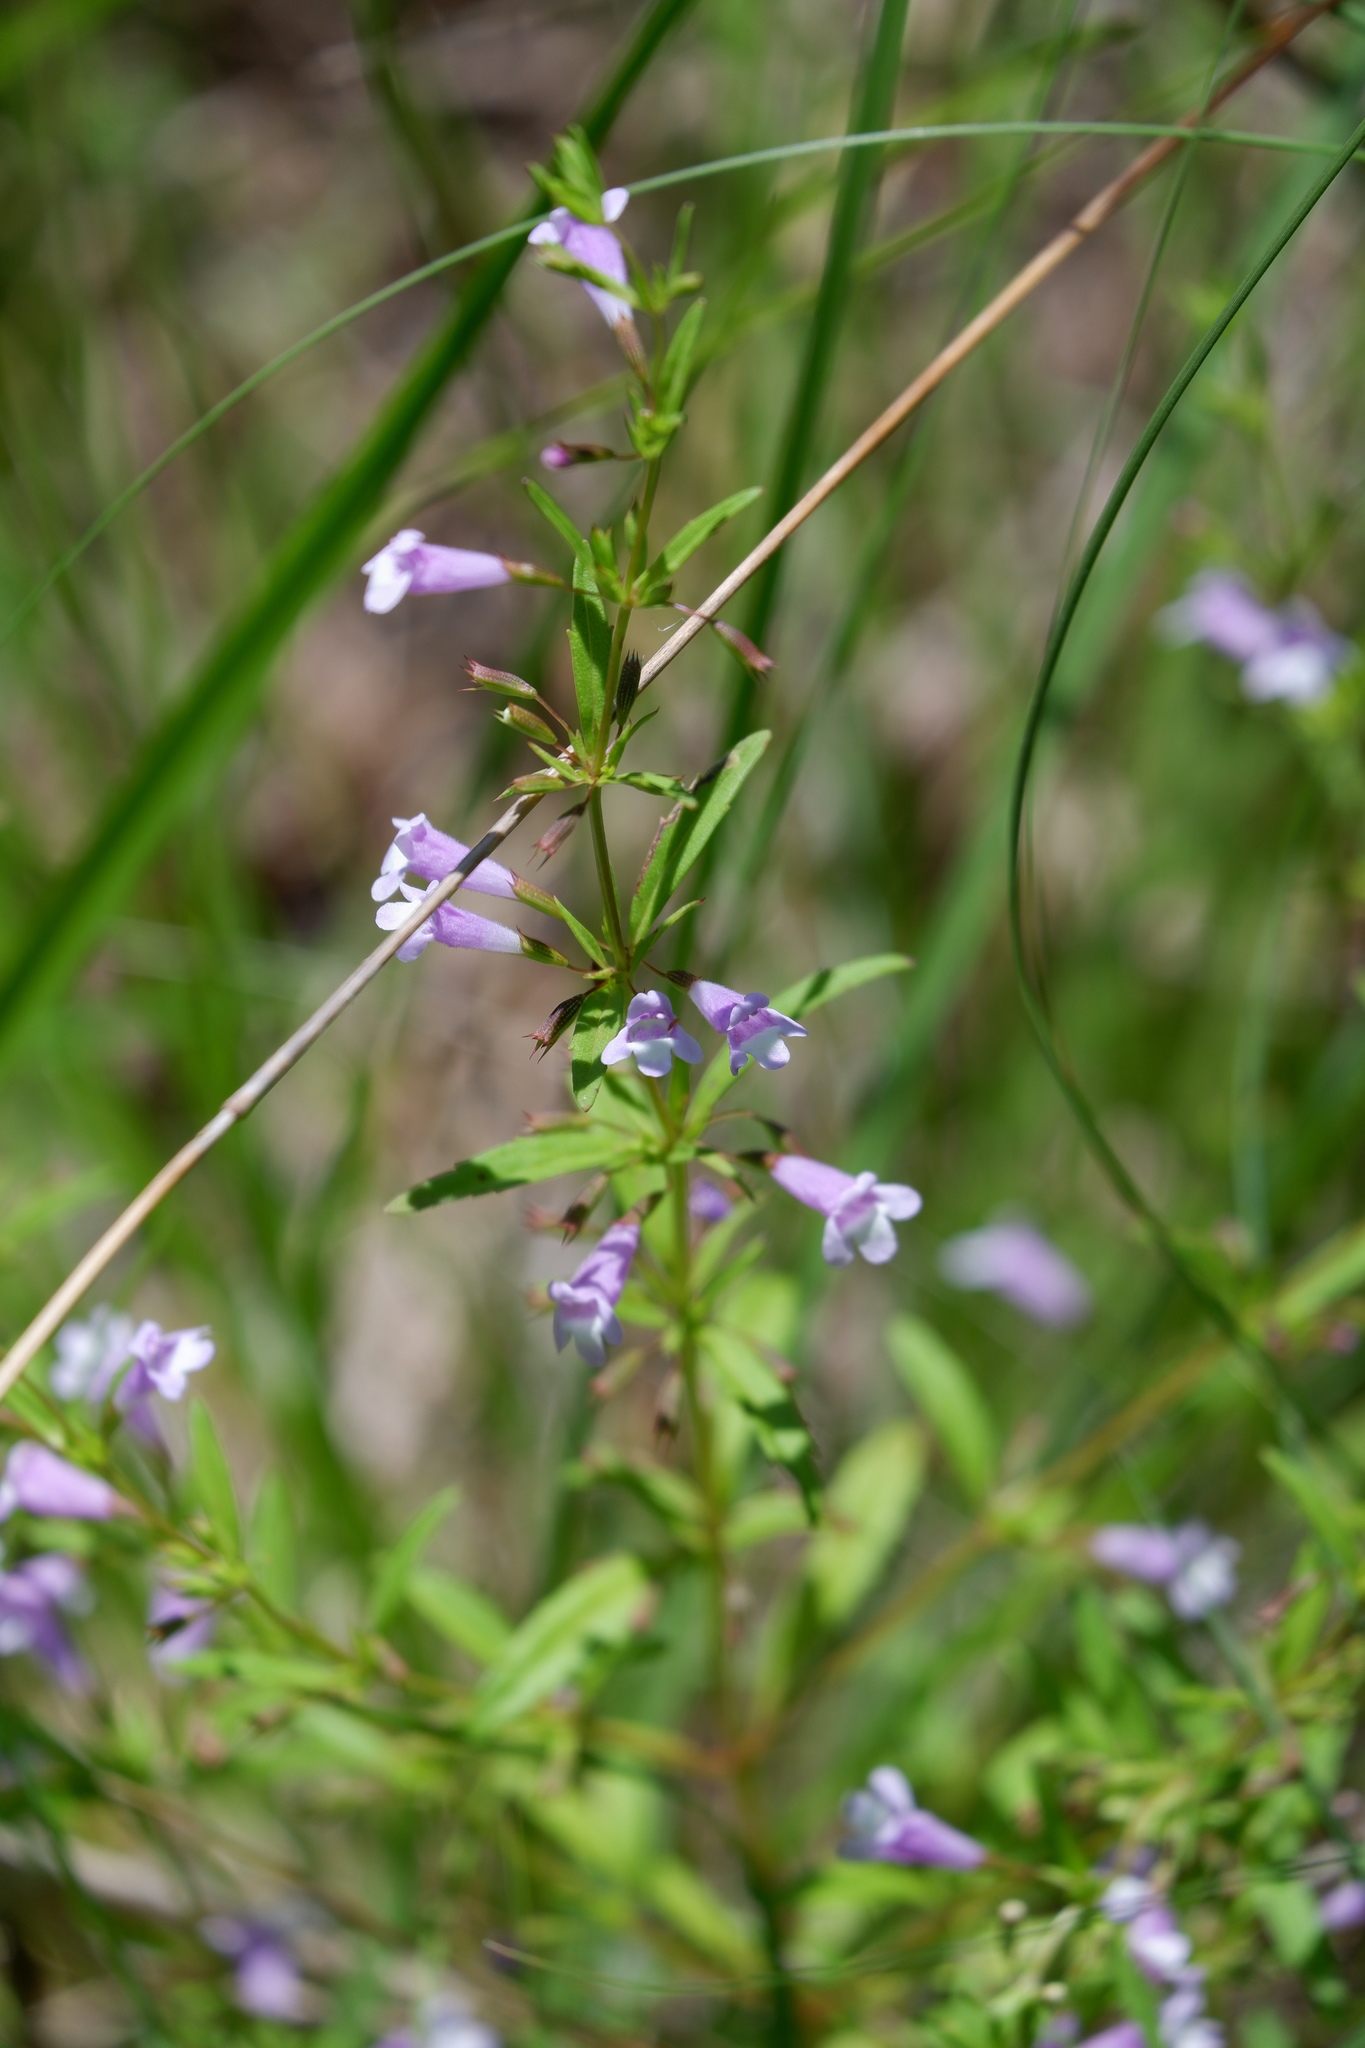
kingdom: Plantae
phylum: Tracheophyta
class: Magnoliopsida
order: Lamiales
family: Lamiaceae
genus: Clinopodium
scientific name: Clinopodium arkansanum
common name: Limestone calamint
